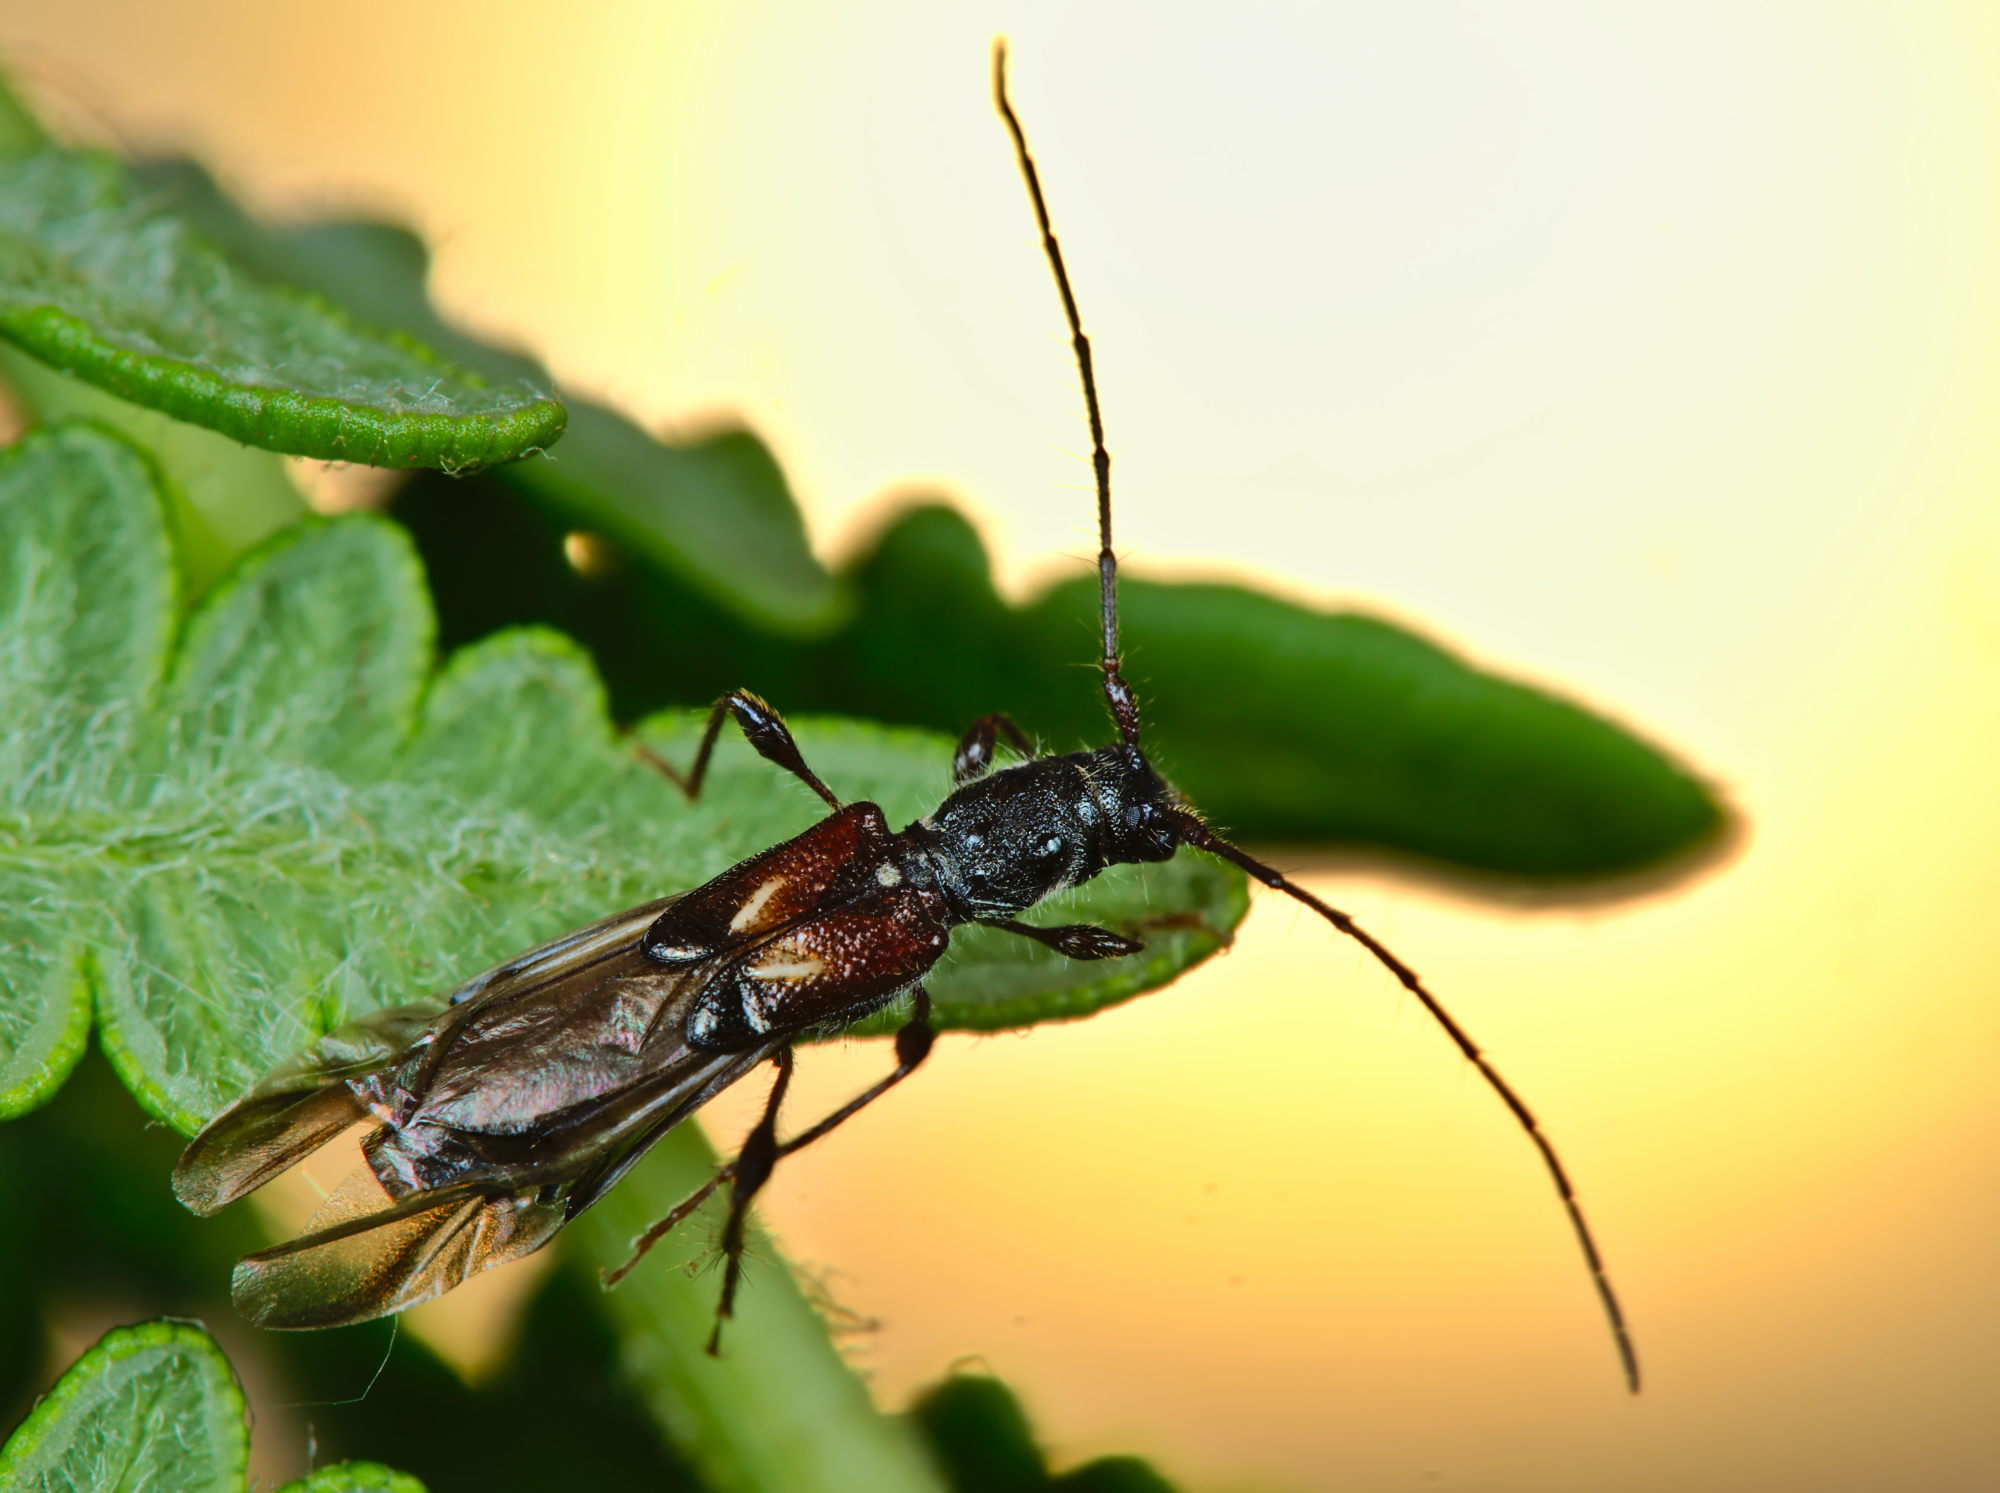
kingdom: Animalia
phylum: Arthropoda
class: Insecta
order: Coleoptera
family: Cerambycidae
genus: Molorchus
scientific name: Molorchus minor
